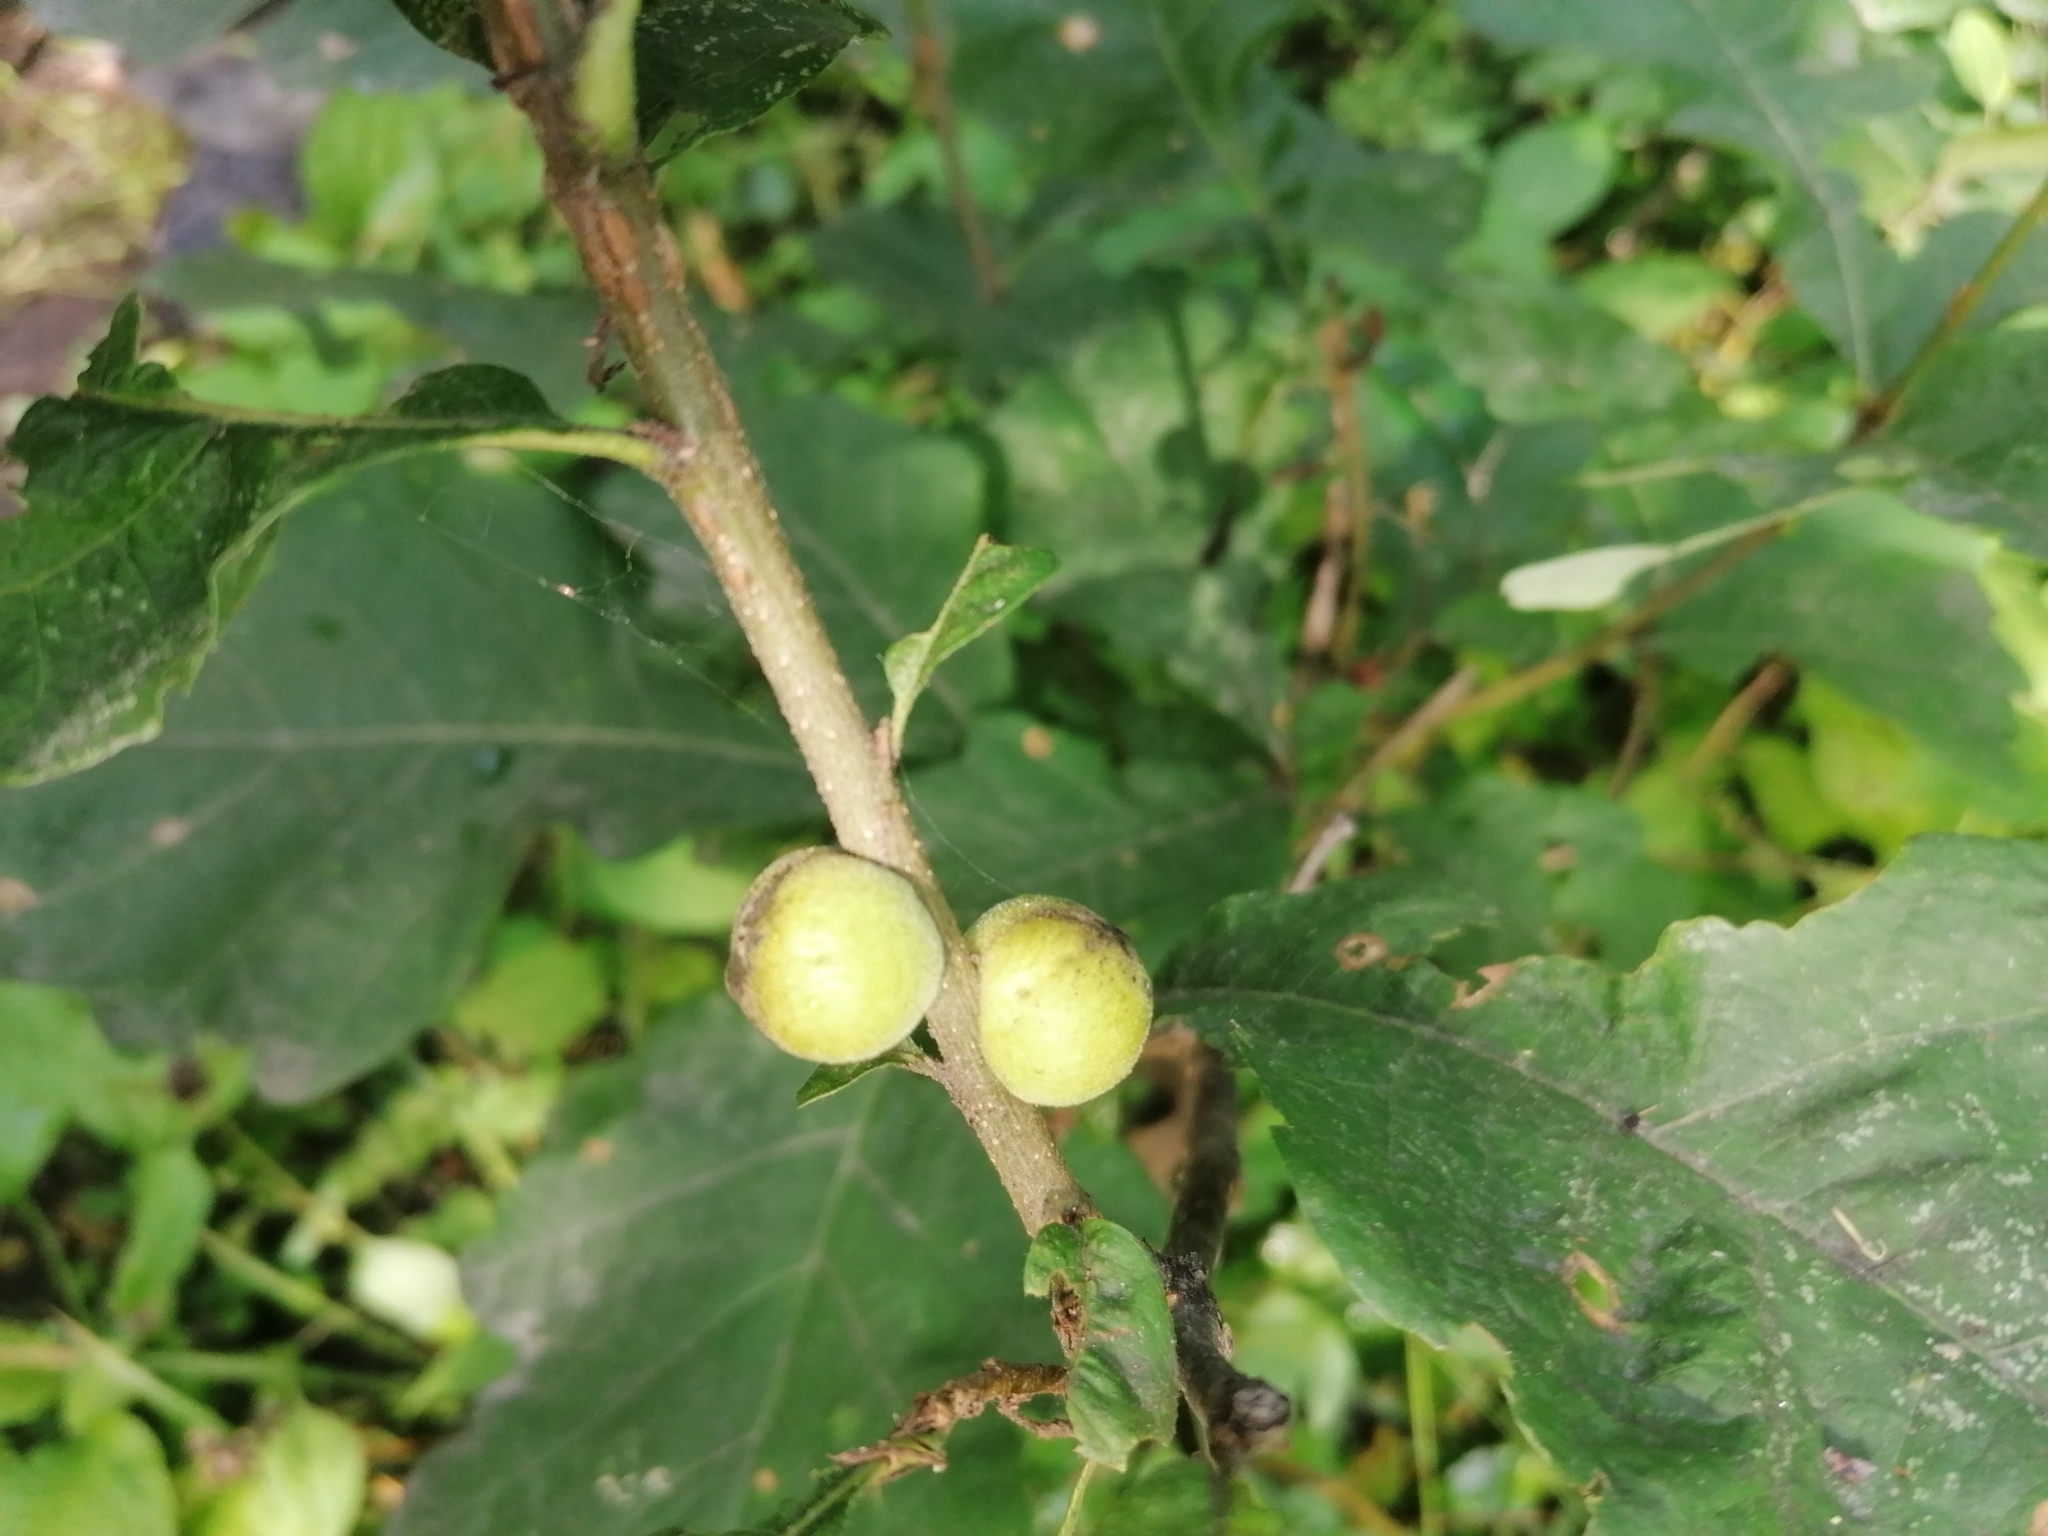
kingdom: Animalia
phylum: Arthropoda
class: Insecta
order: Hymenoptera
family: Cynipidae
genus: Disholcaspis
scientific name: Disholcaspis
